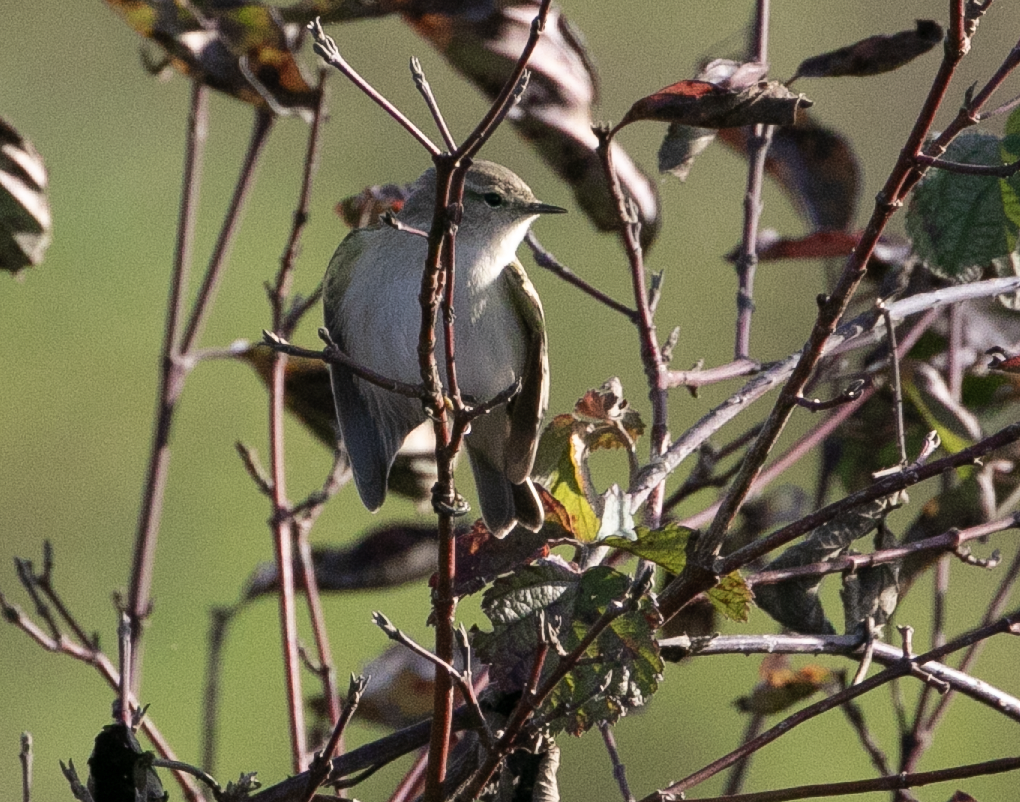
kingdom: Animalia
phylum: Chordata
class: Aves
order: Passeriformes
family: Phylloscopidae
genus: Phylloscopus
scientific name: Phylloscopus collybita
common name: Common chiffchaff
